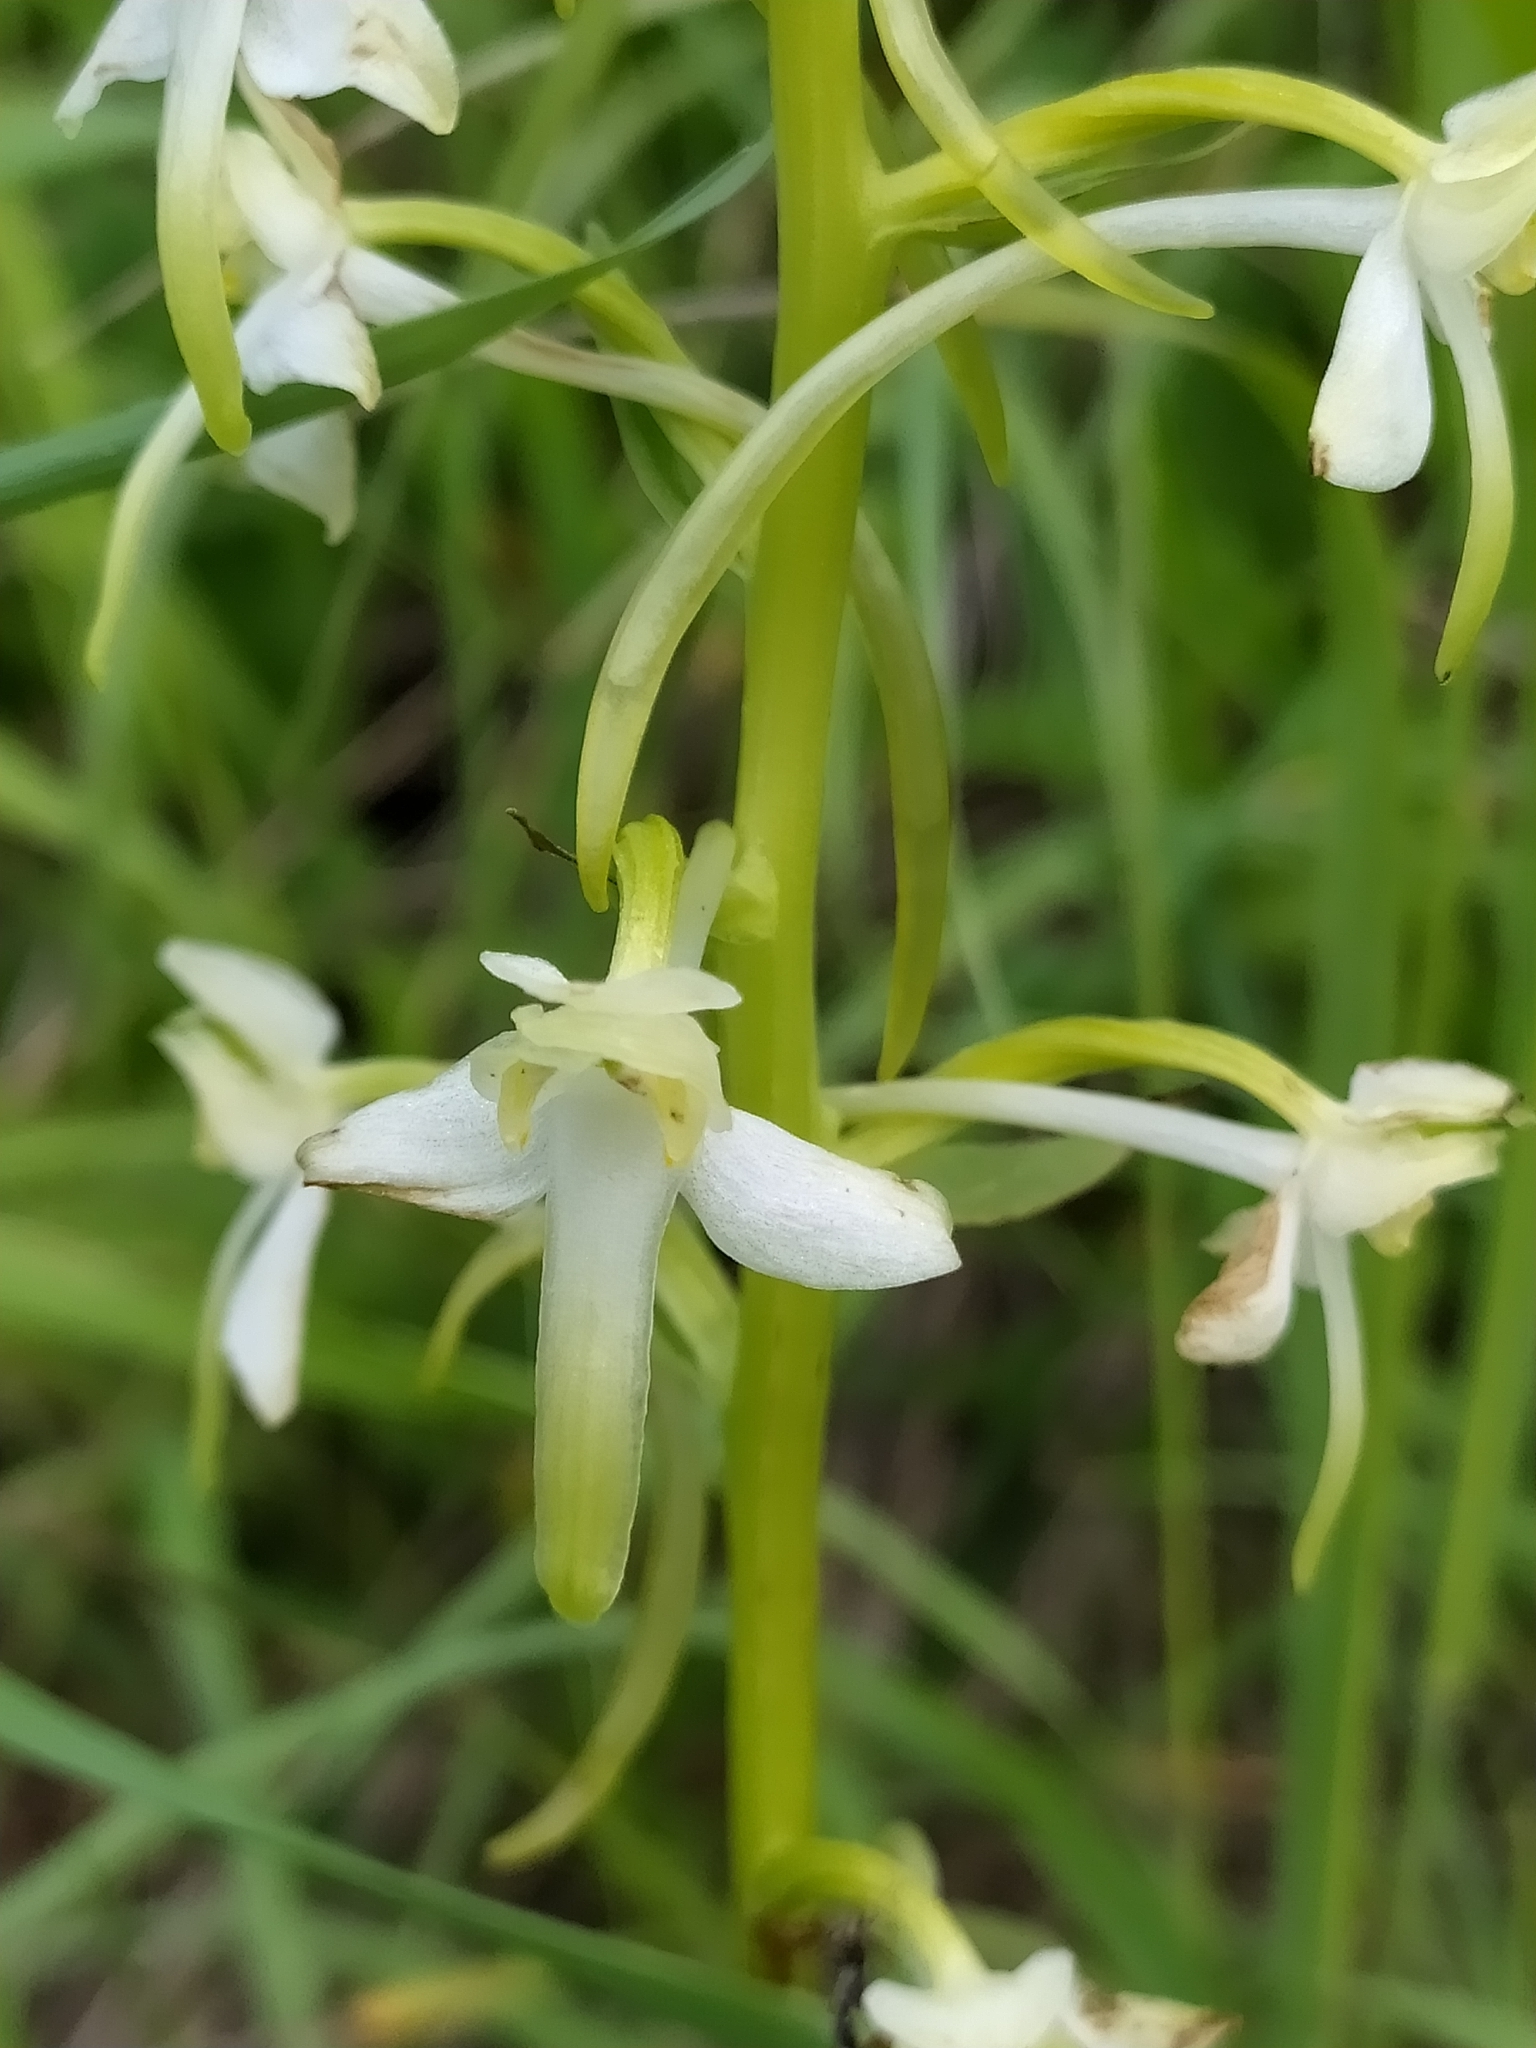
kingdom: Plantae
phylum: Tracheophyta
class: Liliopsida
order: Asparagales
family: Orchidaceae
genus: Platanthera
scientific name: Platanthera chlorantha
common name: Greater butterfly-orchid
